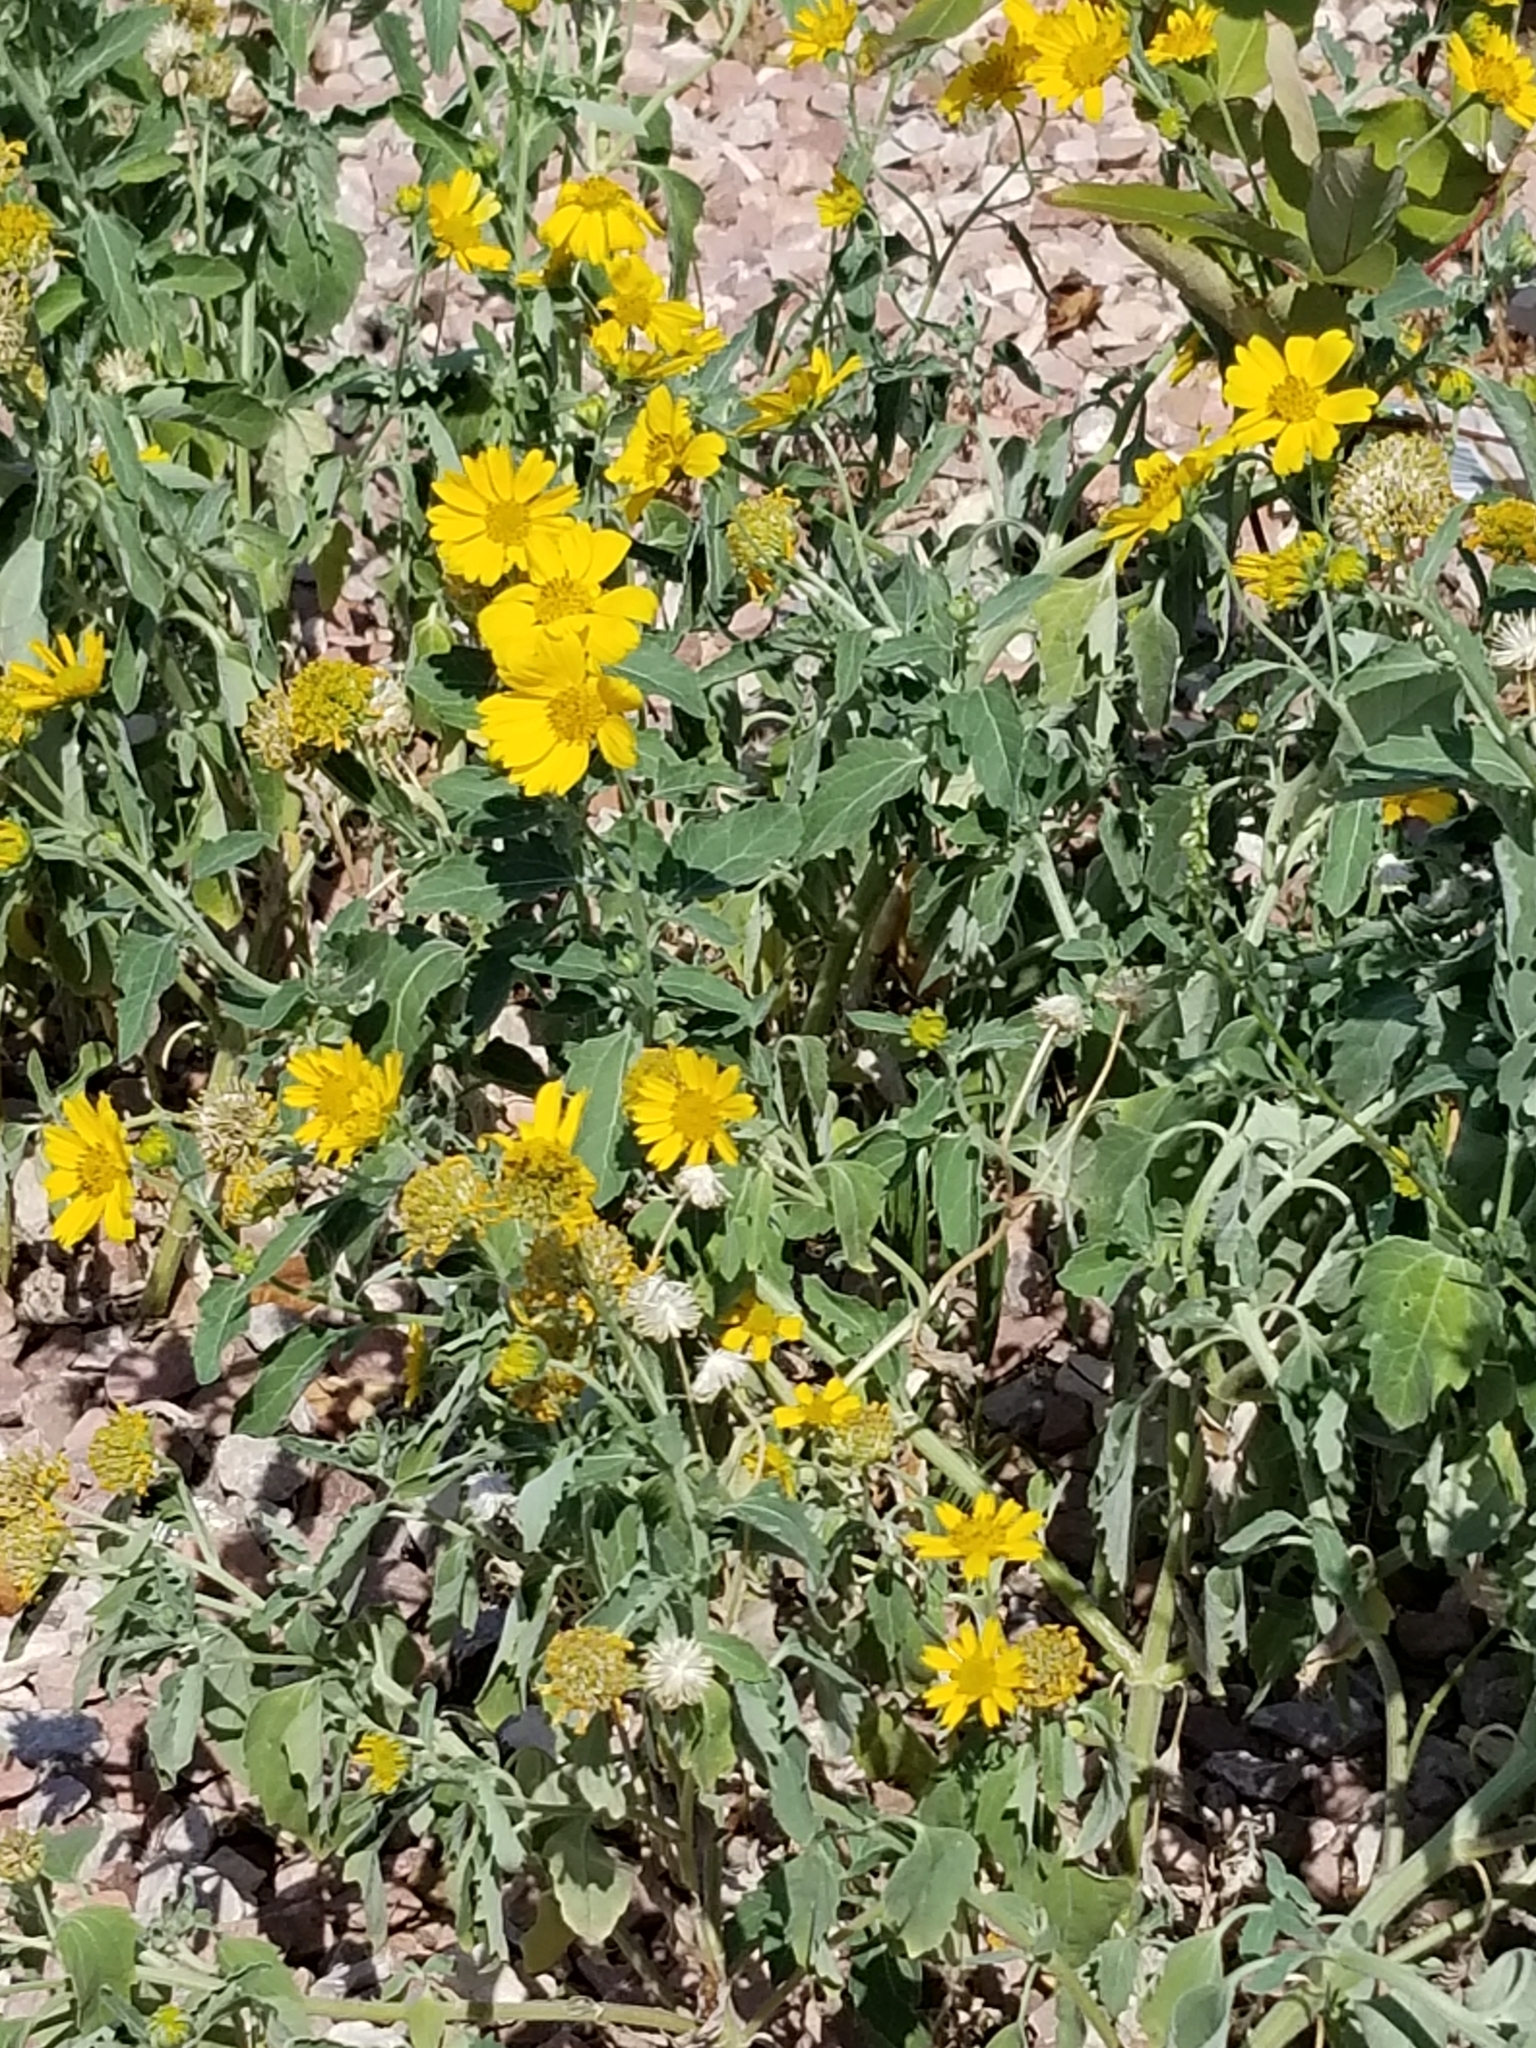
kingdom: Plantae
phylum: Tracheophyta
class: Magnoliopsida
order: Asterales
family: Asteraceae
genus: Verbesina
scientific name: Verbesina encelioides
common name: Golden crownbeard
